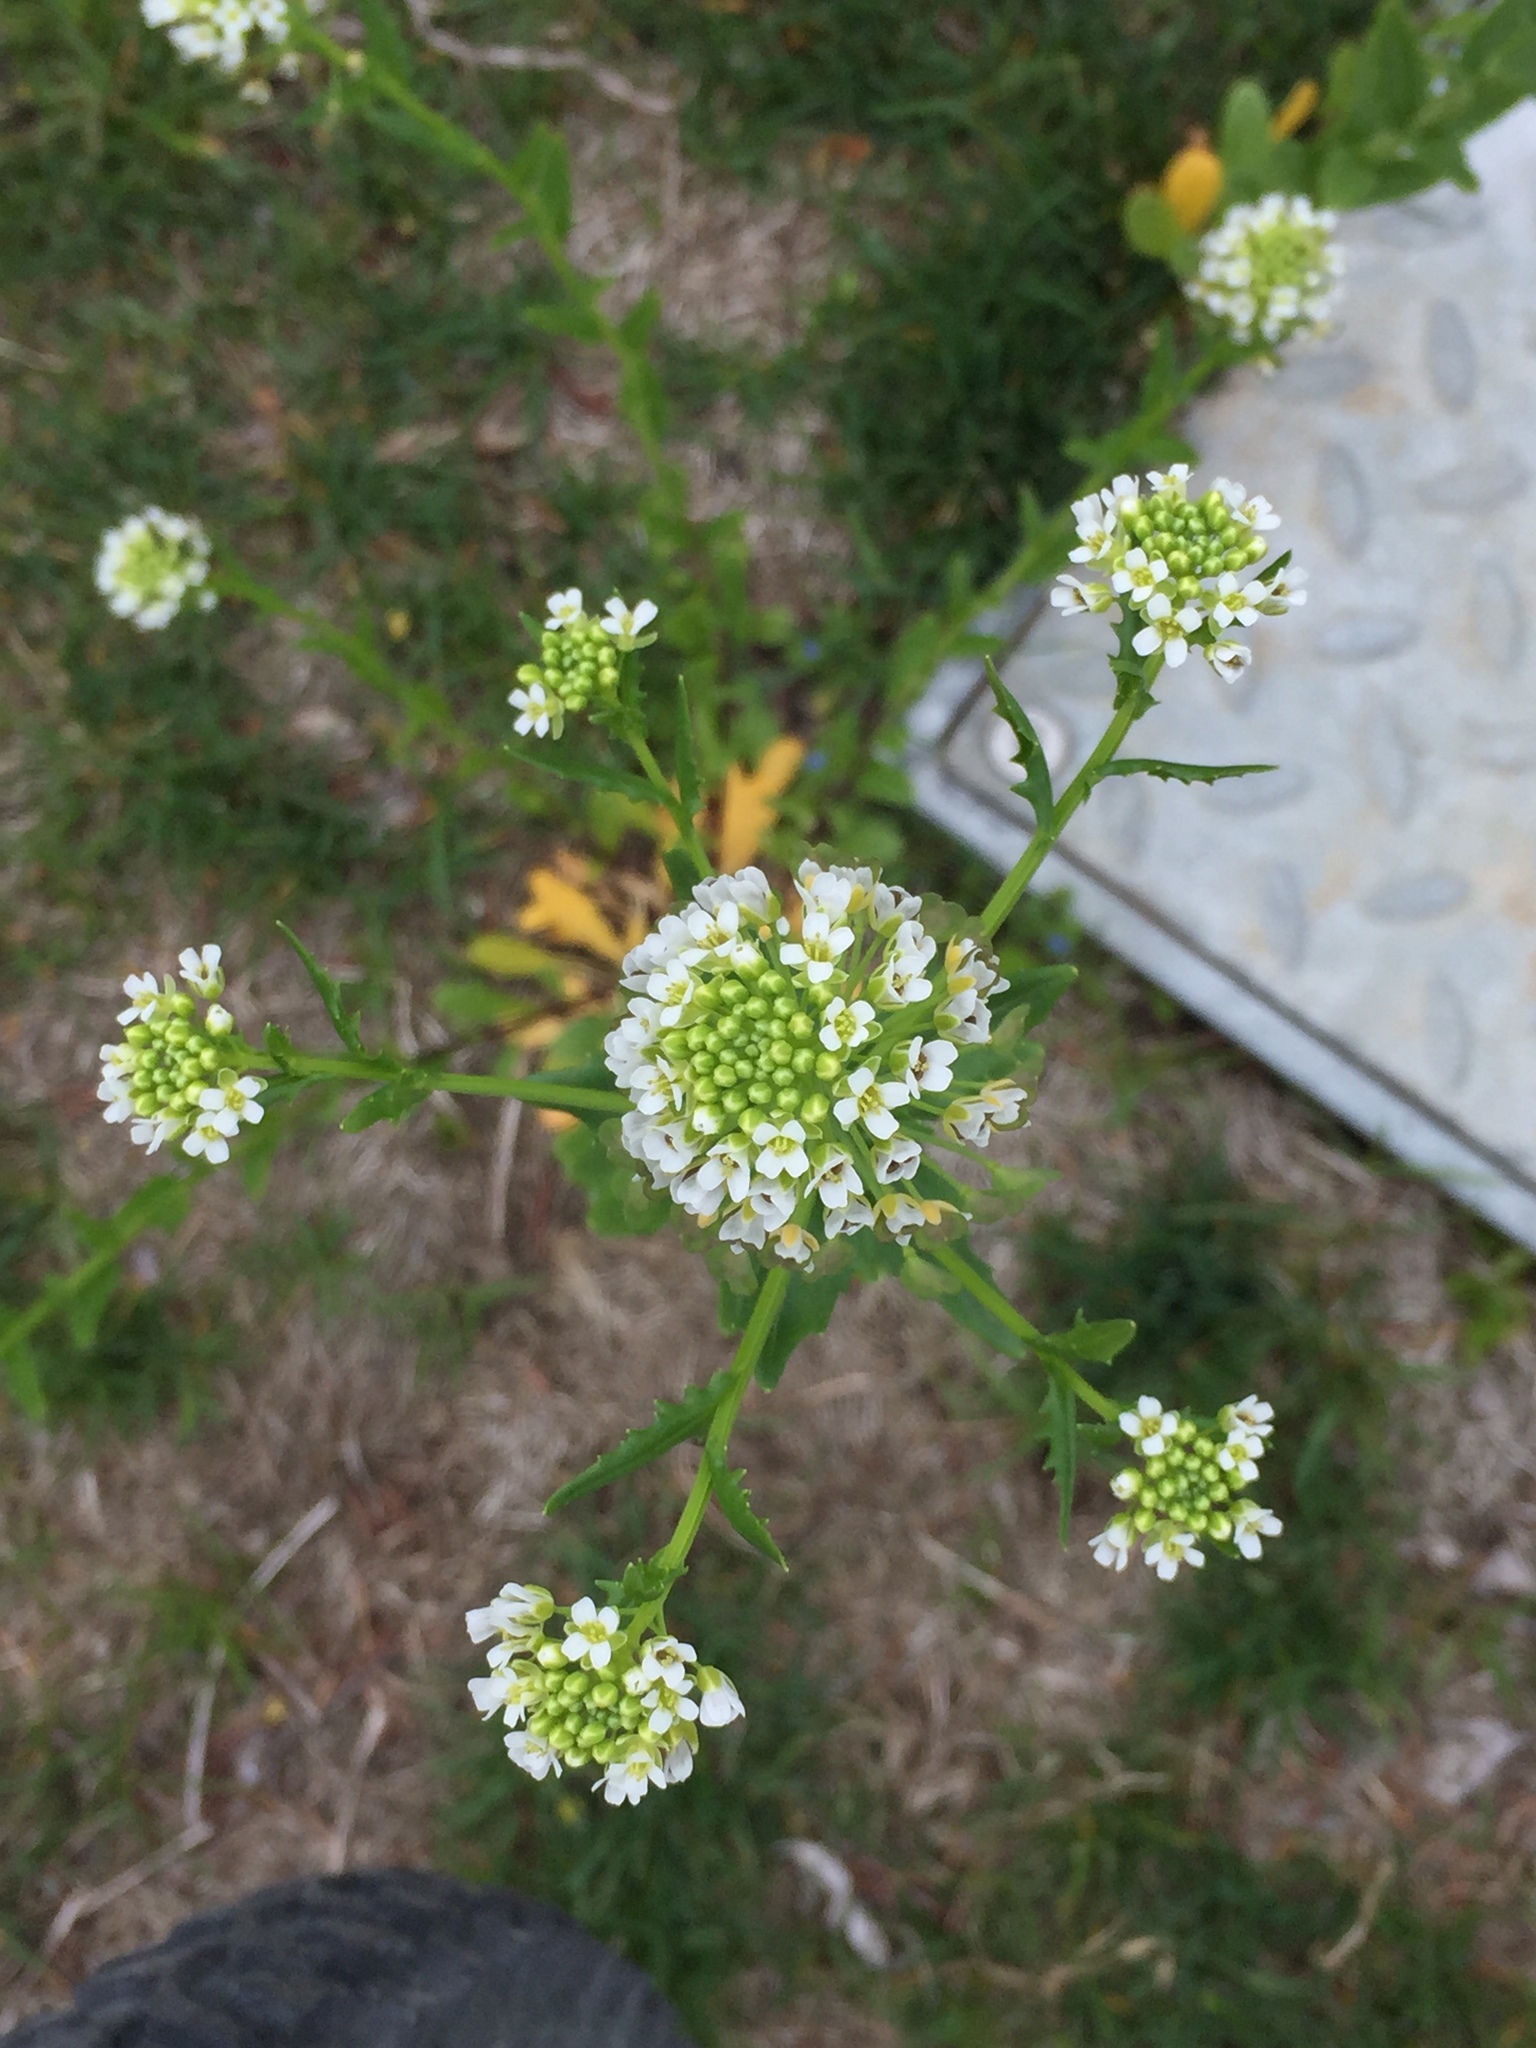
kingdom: Plantae
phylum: Tracheophyta
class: Magnoliopsida
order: Brassicales
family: Brassicaceae
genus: Thlaspi
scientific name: Thlaspi arvense
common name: Field pennycress
